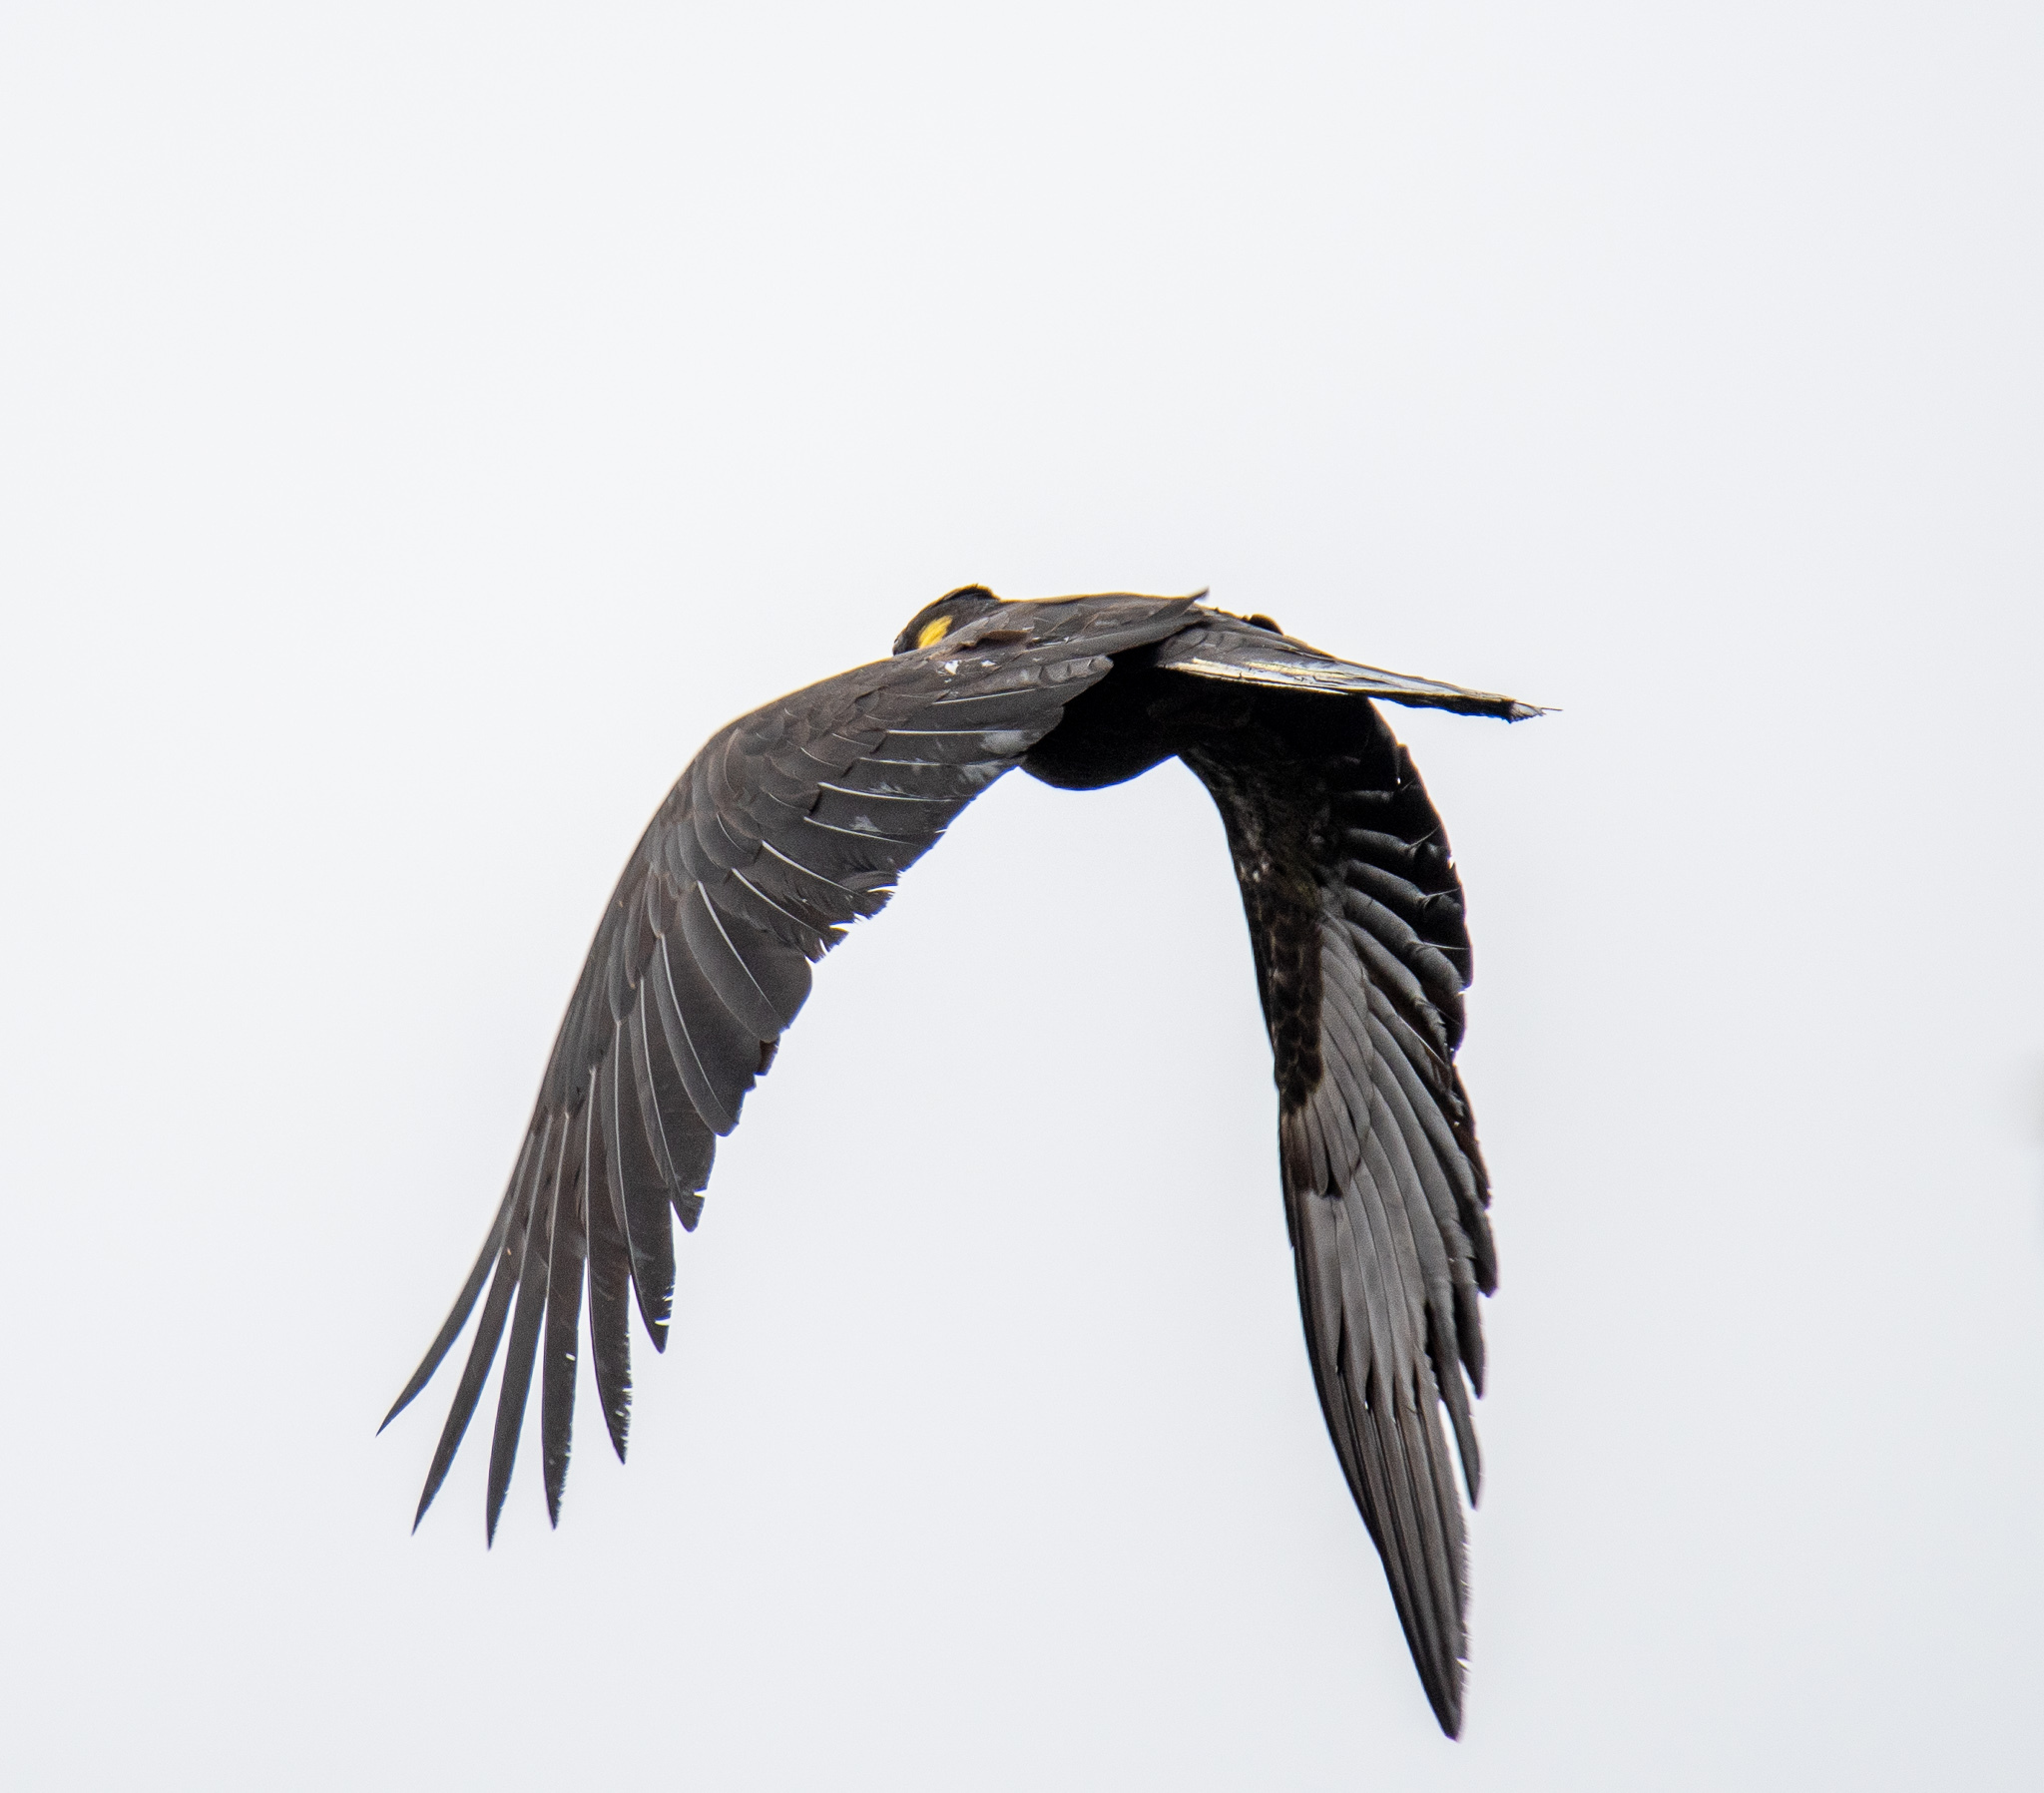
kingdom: Animalia
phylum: Chordata
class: Aves
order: Psittaciformes
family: Cacatuidae
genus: Zanda
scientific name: Zanda funerea
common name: Yellow-tailed black-cockatoo
